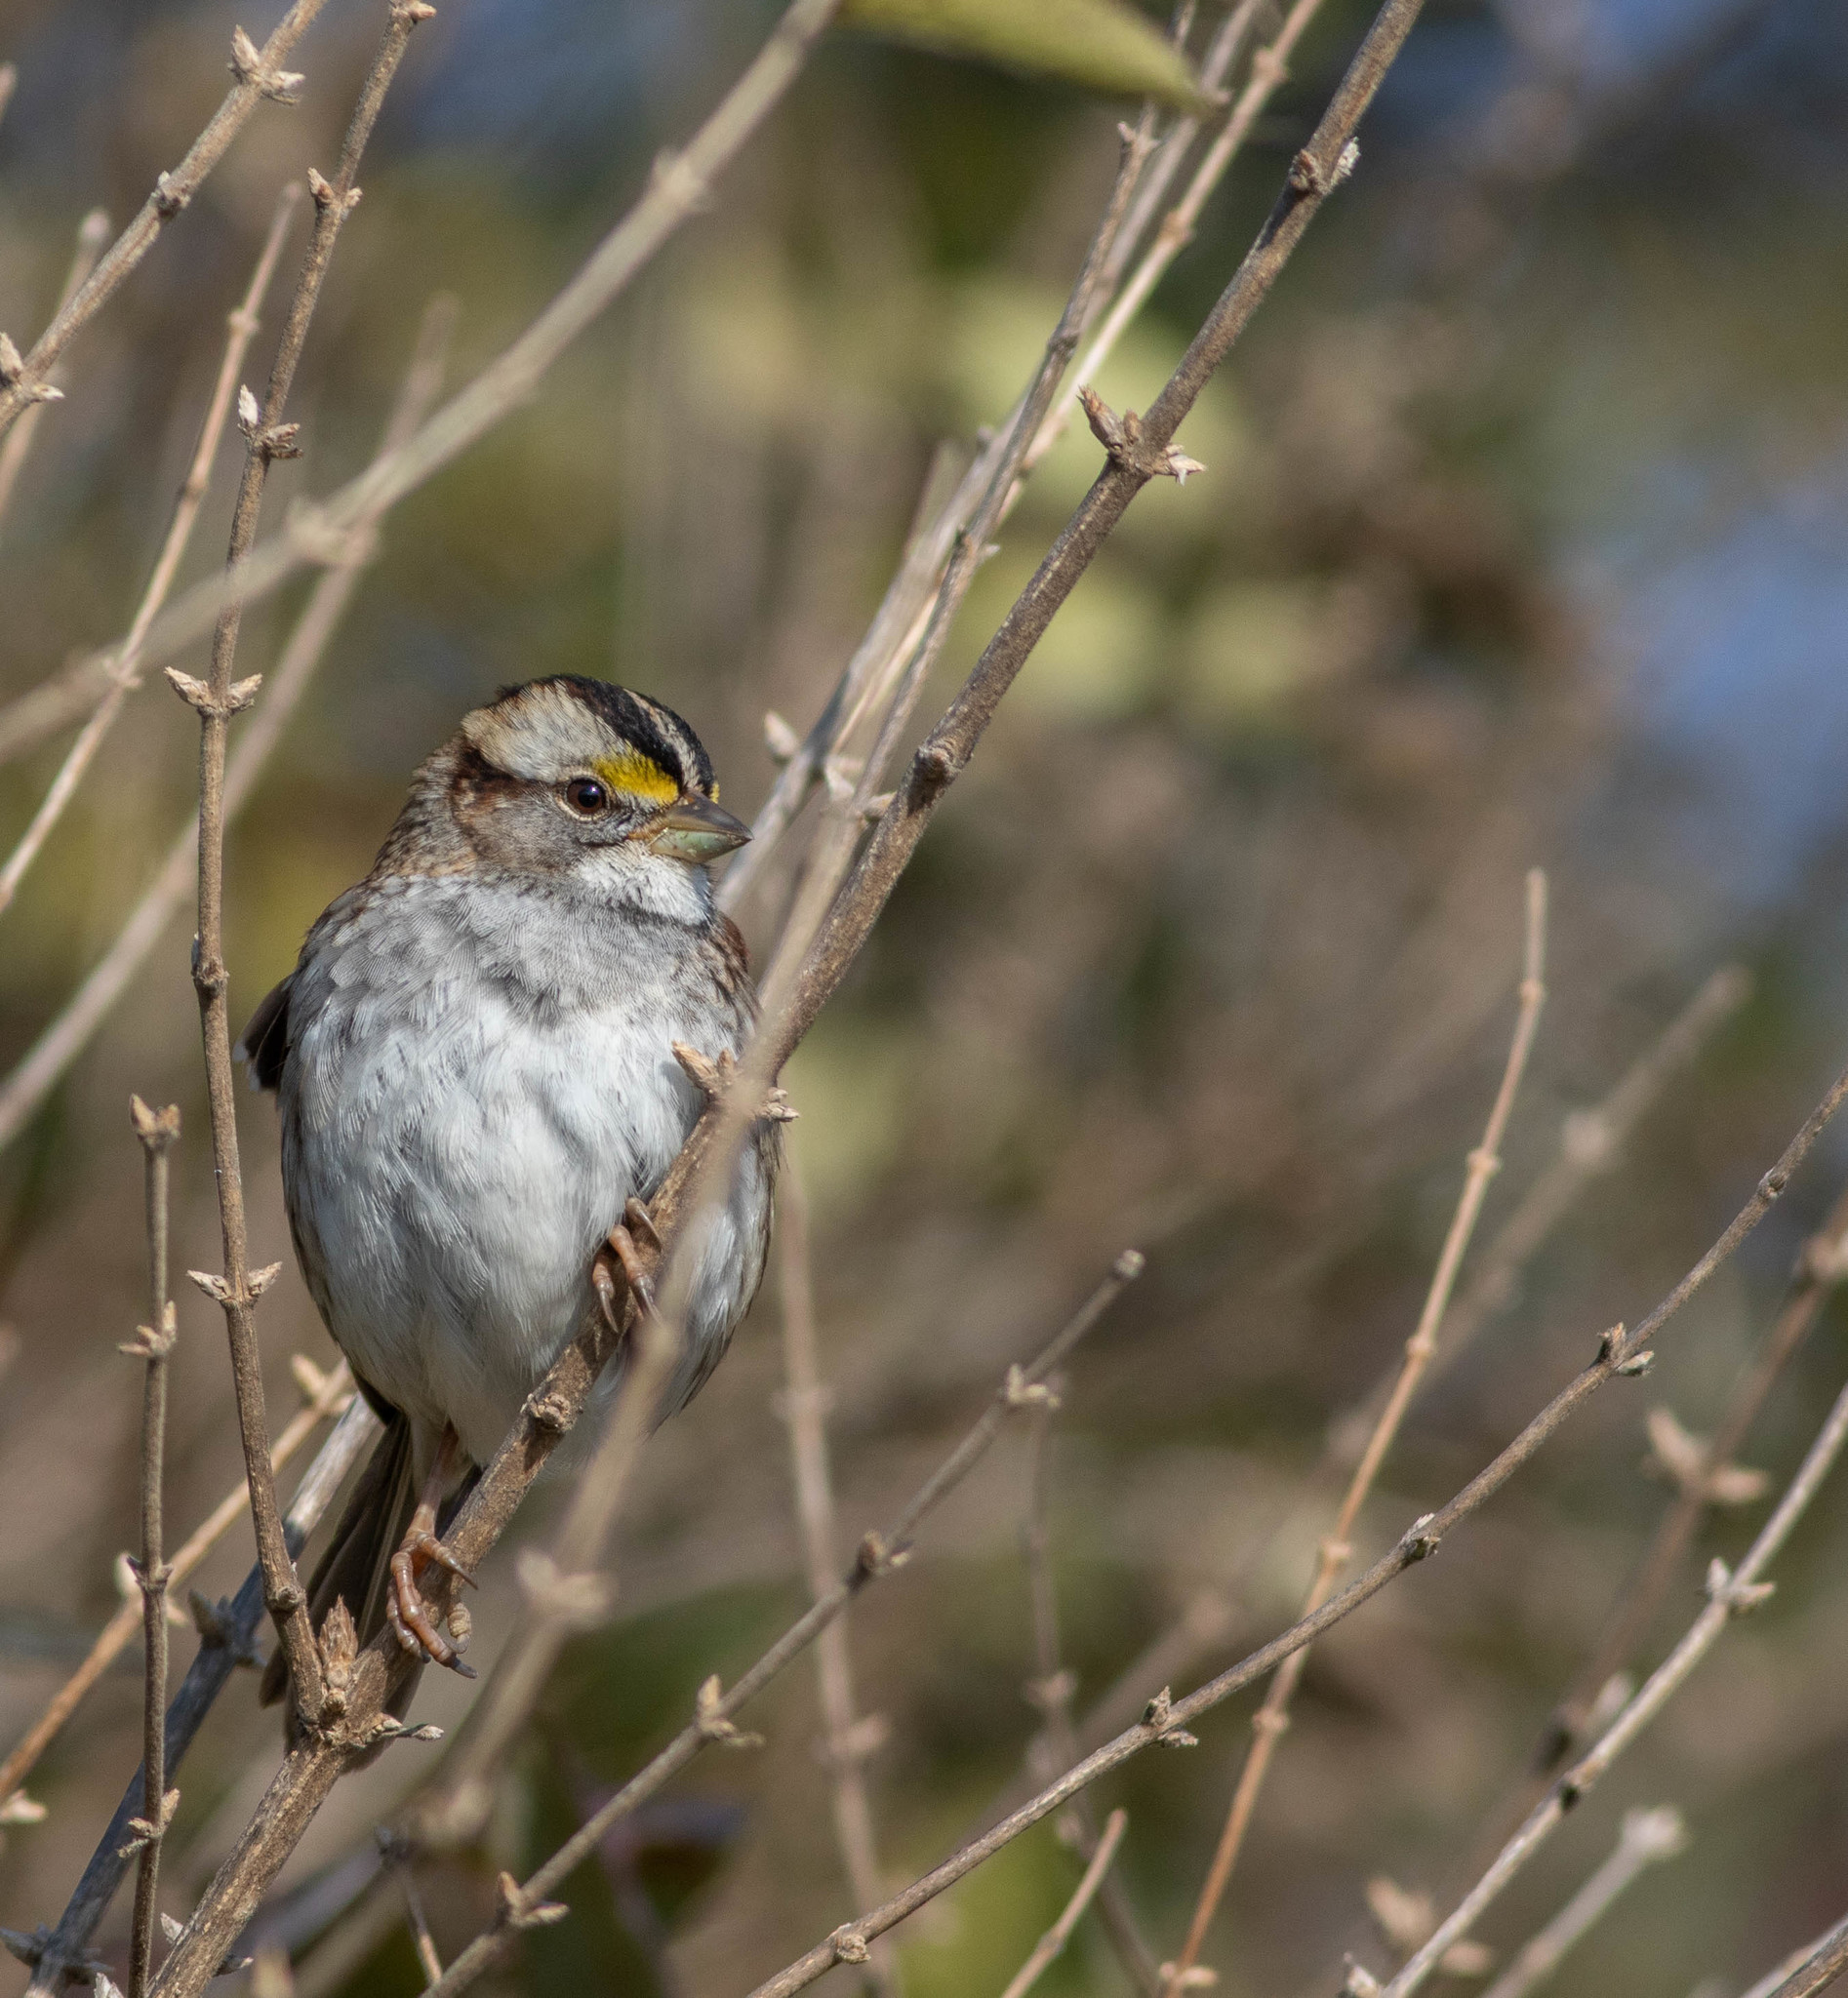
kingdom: Animalia
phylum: Chordata
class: Aves
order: Passeriformes
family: Passerellidae
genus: Zonotrichia
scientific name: Zonotrichia albicollis
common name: White-throated sparrow
